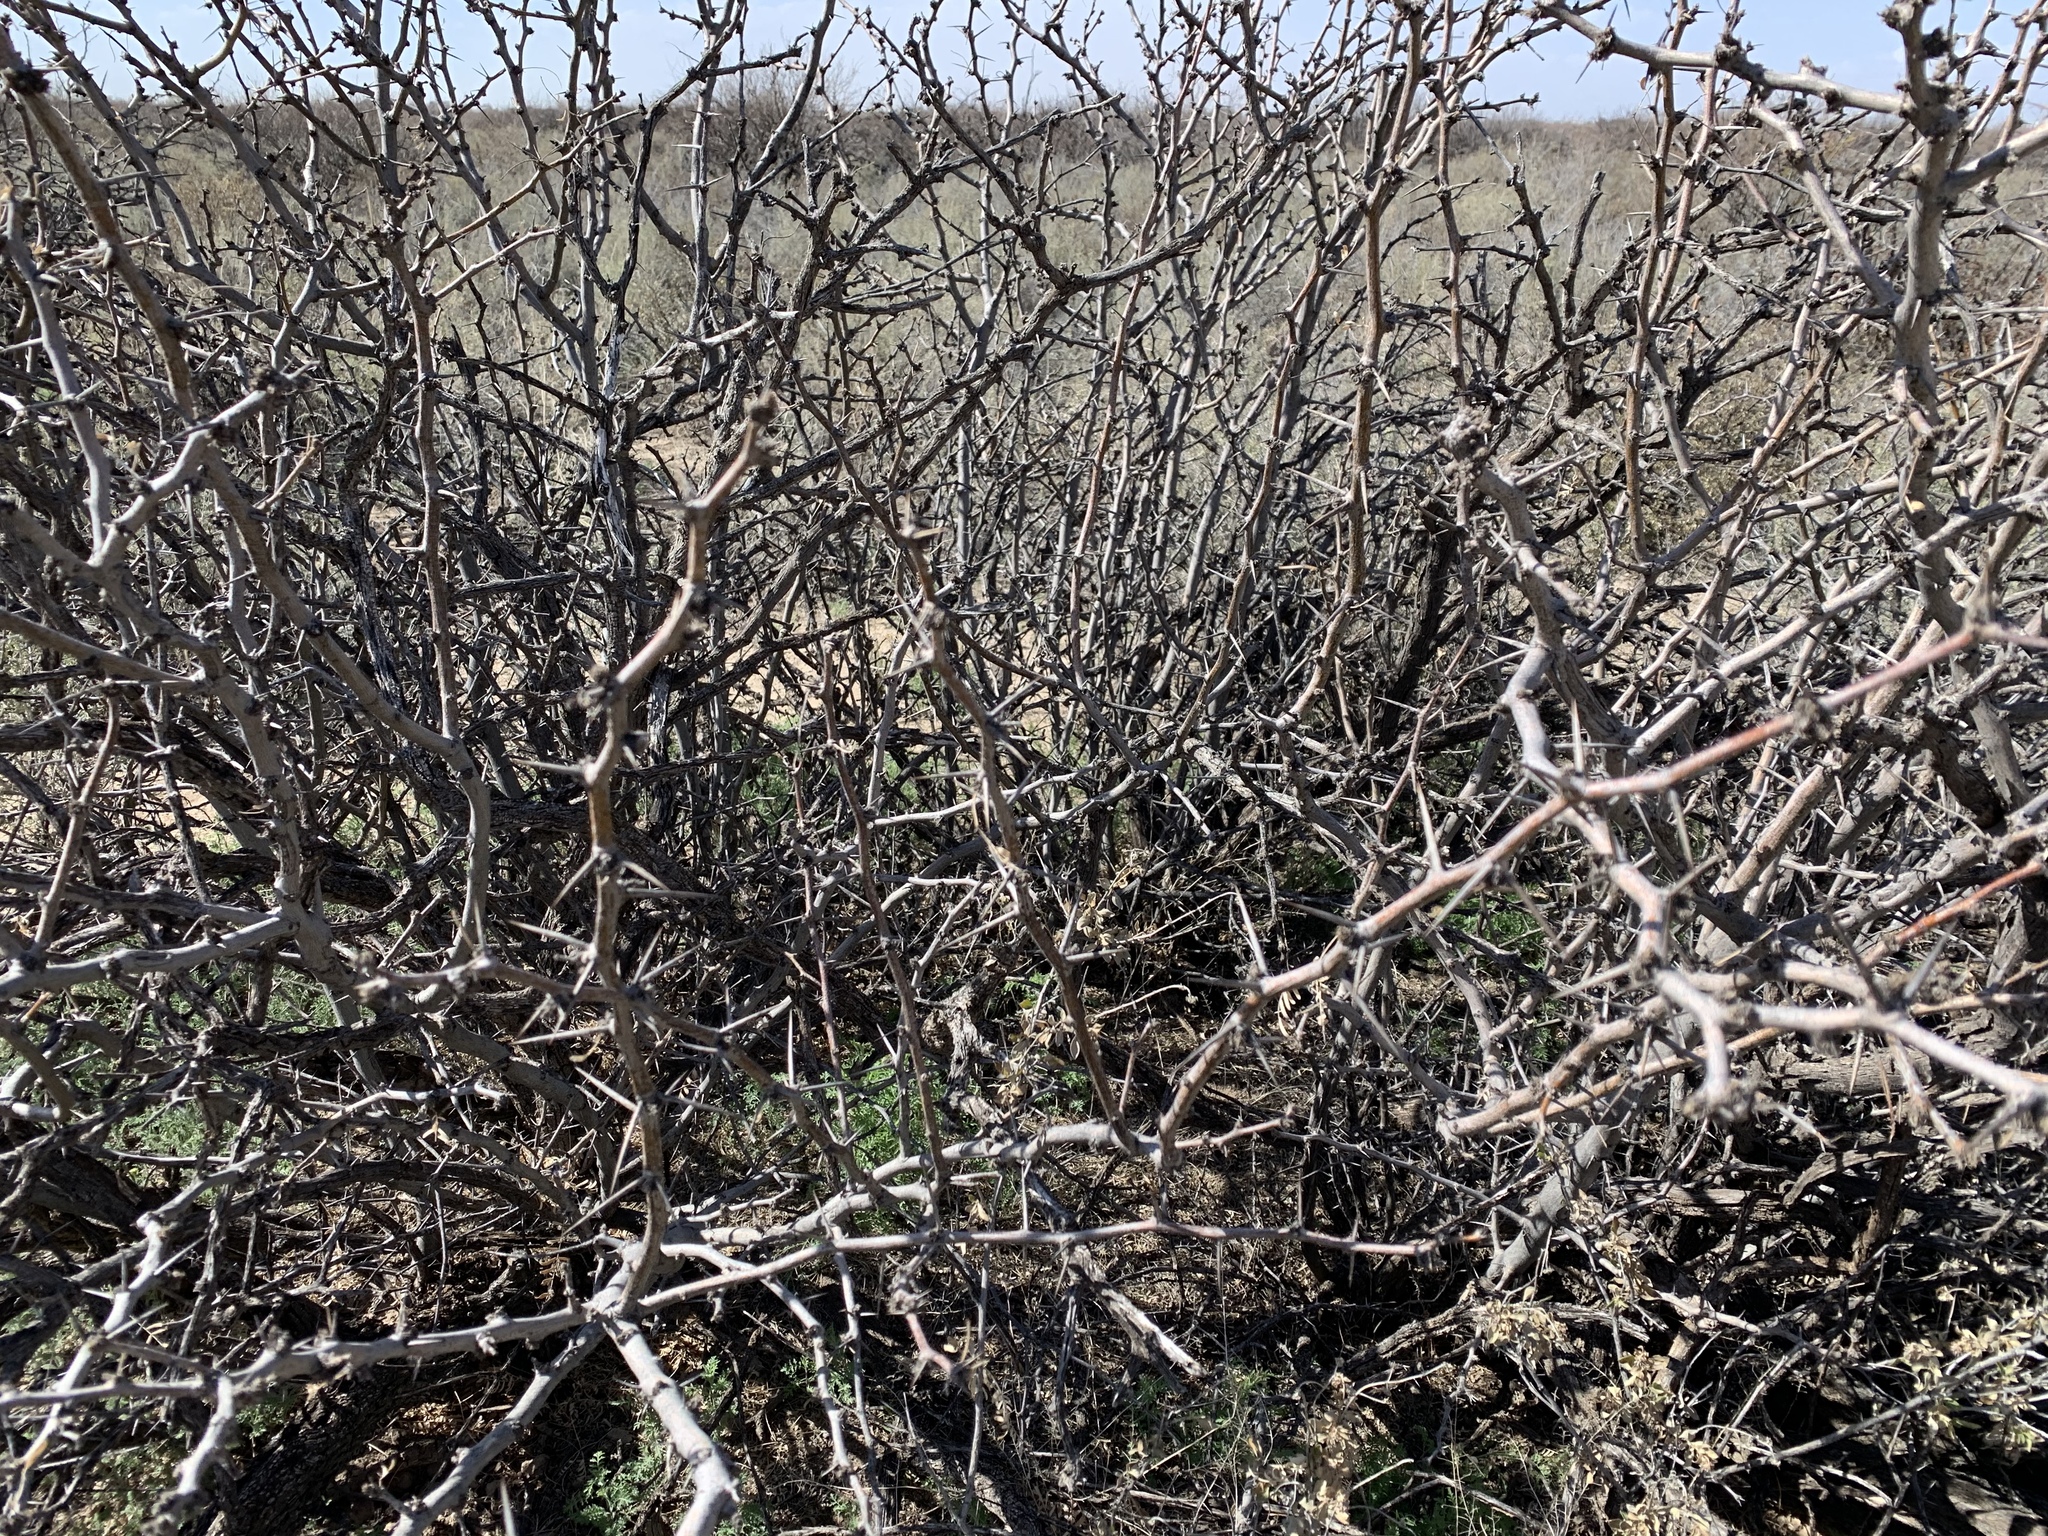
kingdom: Plantae
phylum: Tracheophyta
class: Magnoliopsida
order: Fabales
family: Fabaceae
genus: Prosopis
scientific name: Prosopis glandulosa
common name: Honey mesquite
